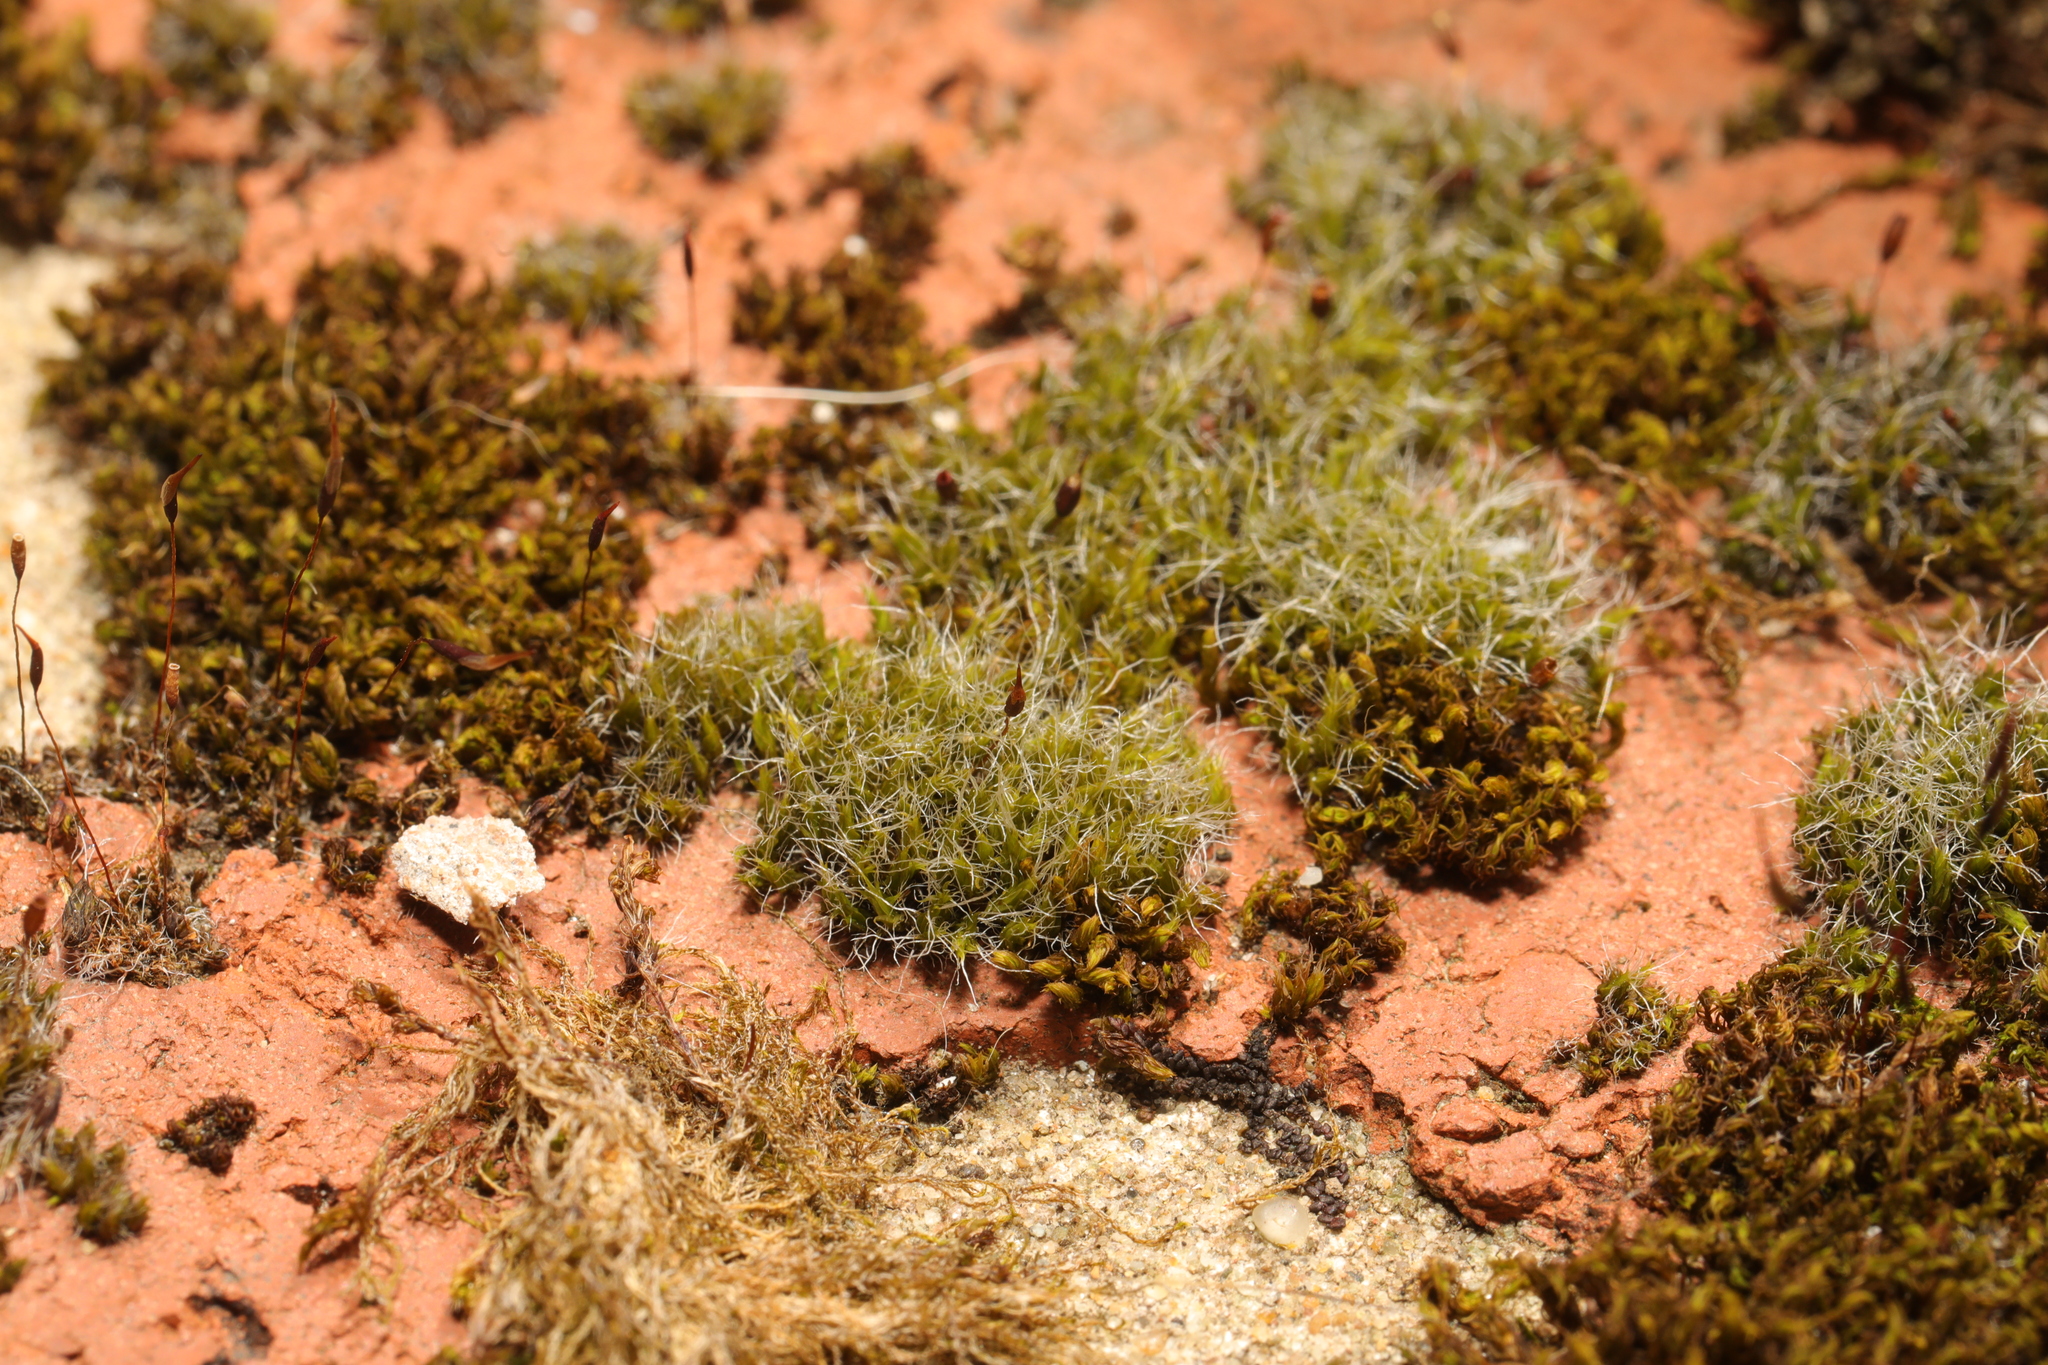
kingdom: Plantae
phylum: Bryophyta
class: Bryopsida
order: Grimmiales
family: Grimmiaceae
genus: Grimmia
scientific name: Grimmia pulvinata
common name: Grey-cushioned grimmia
